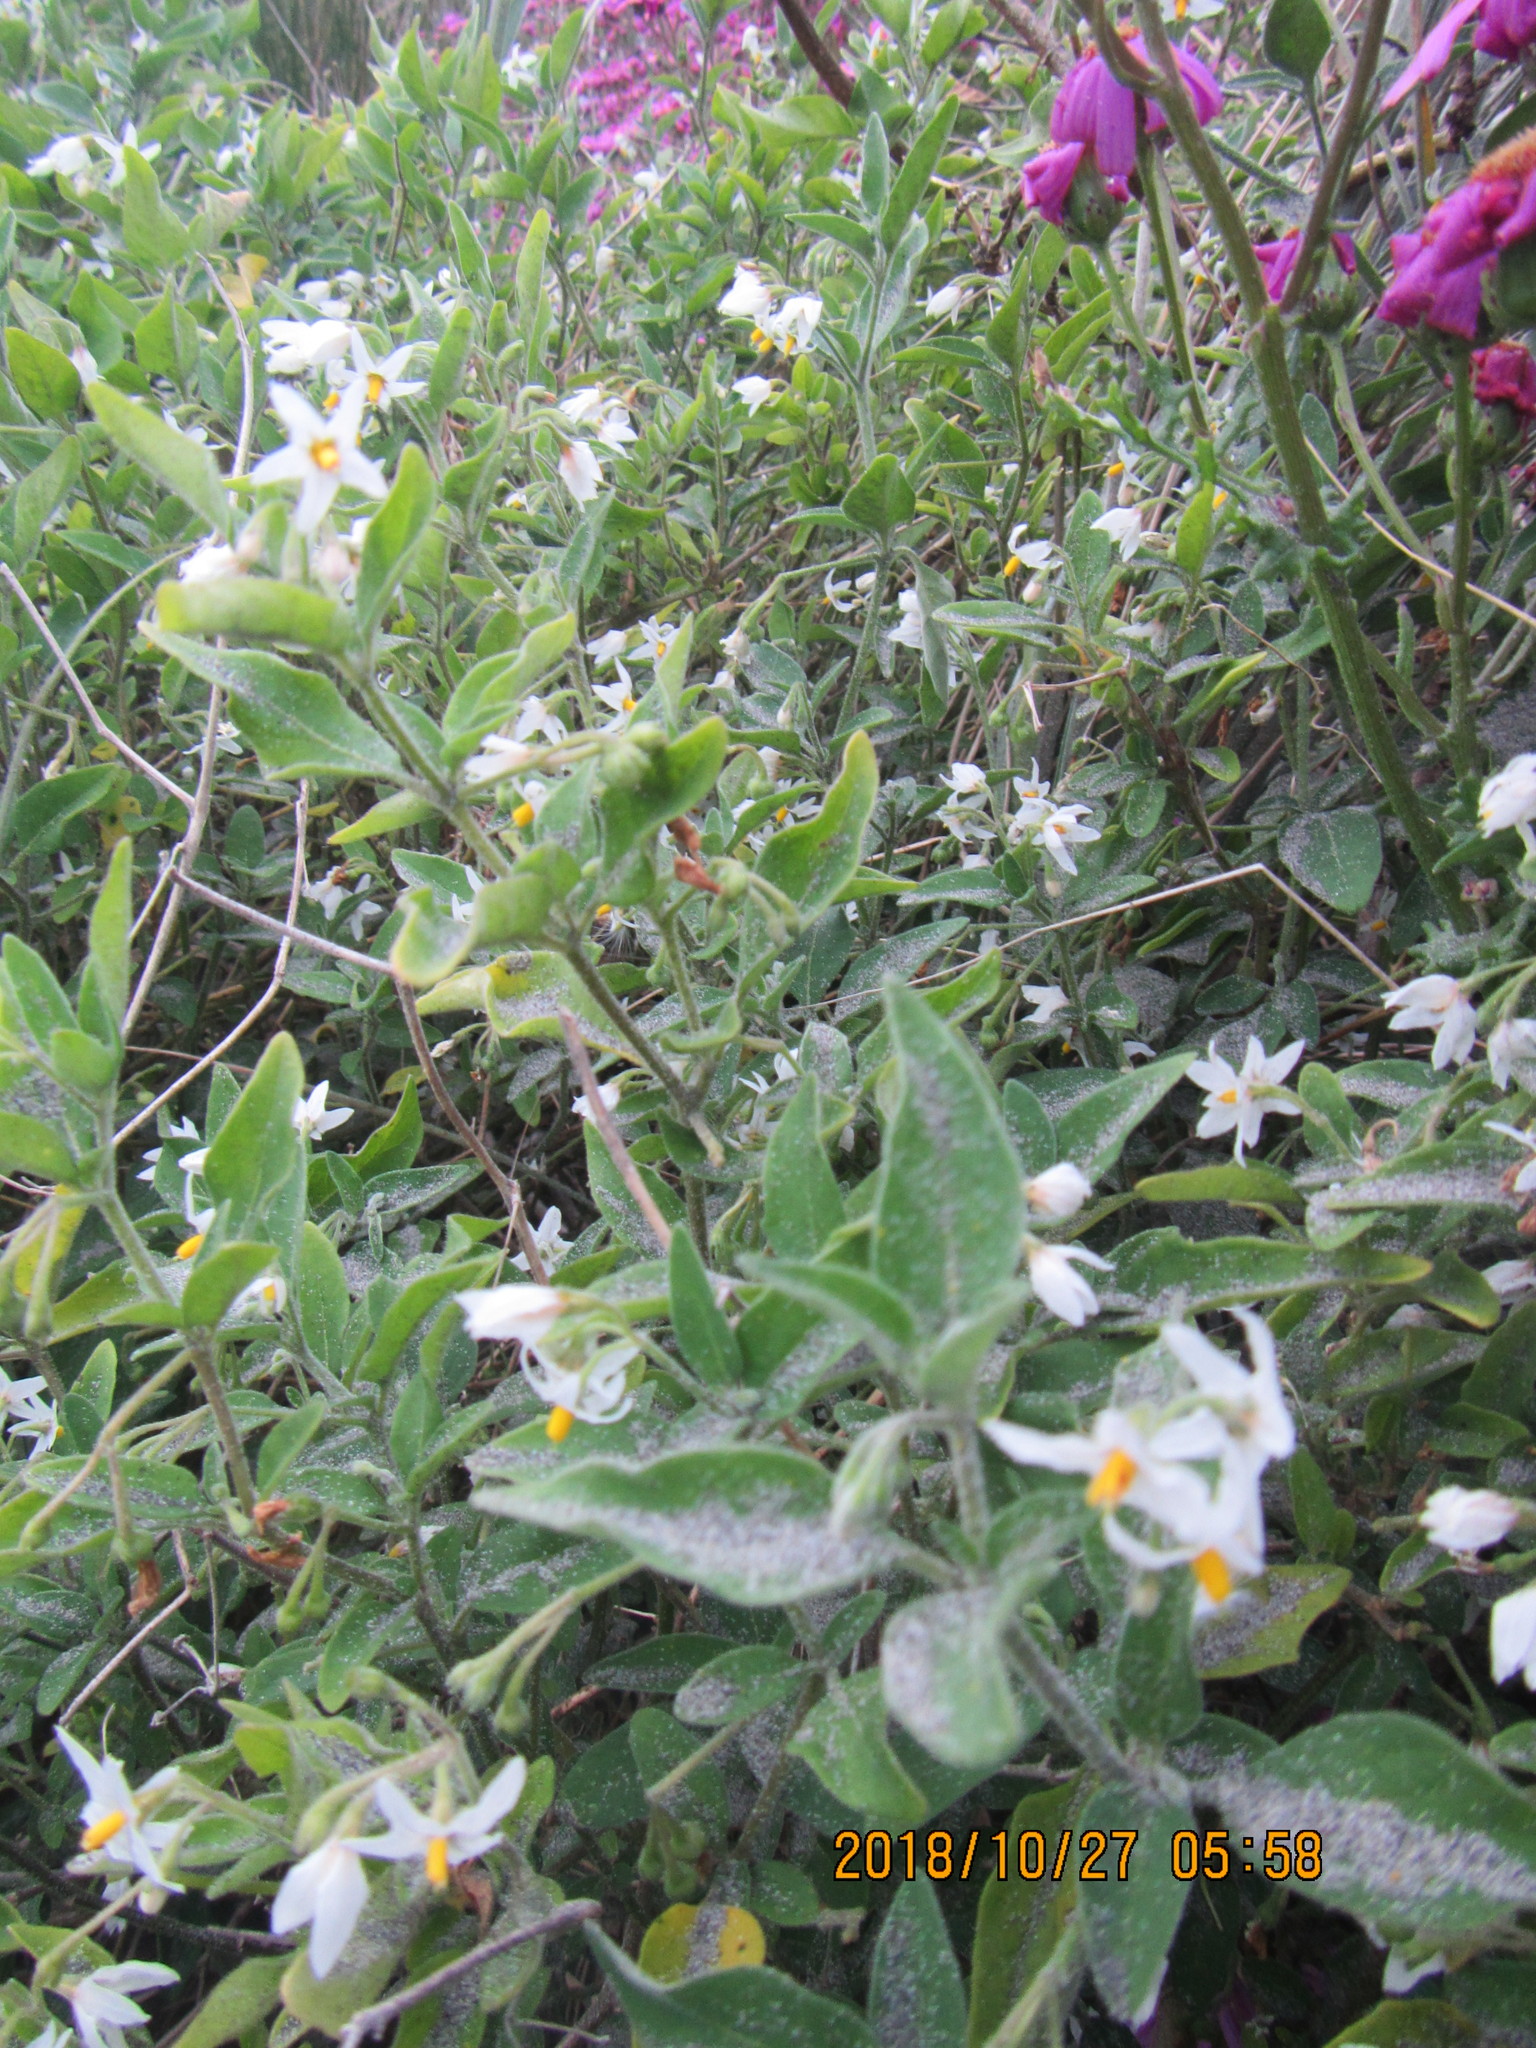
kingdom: Plantae
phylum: Tracheophyta
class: Magnoliopsida
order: Solanales
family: Solanaceae
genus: Solanum
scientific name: Solanum chenopodioides
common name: Tall nightshade
